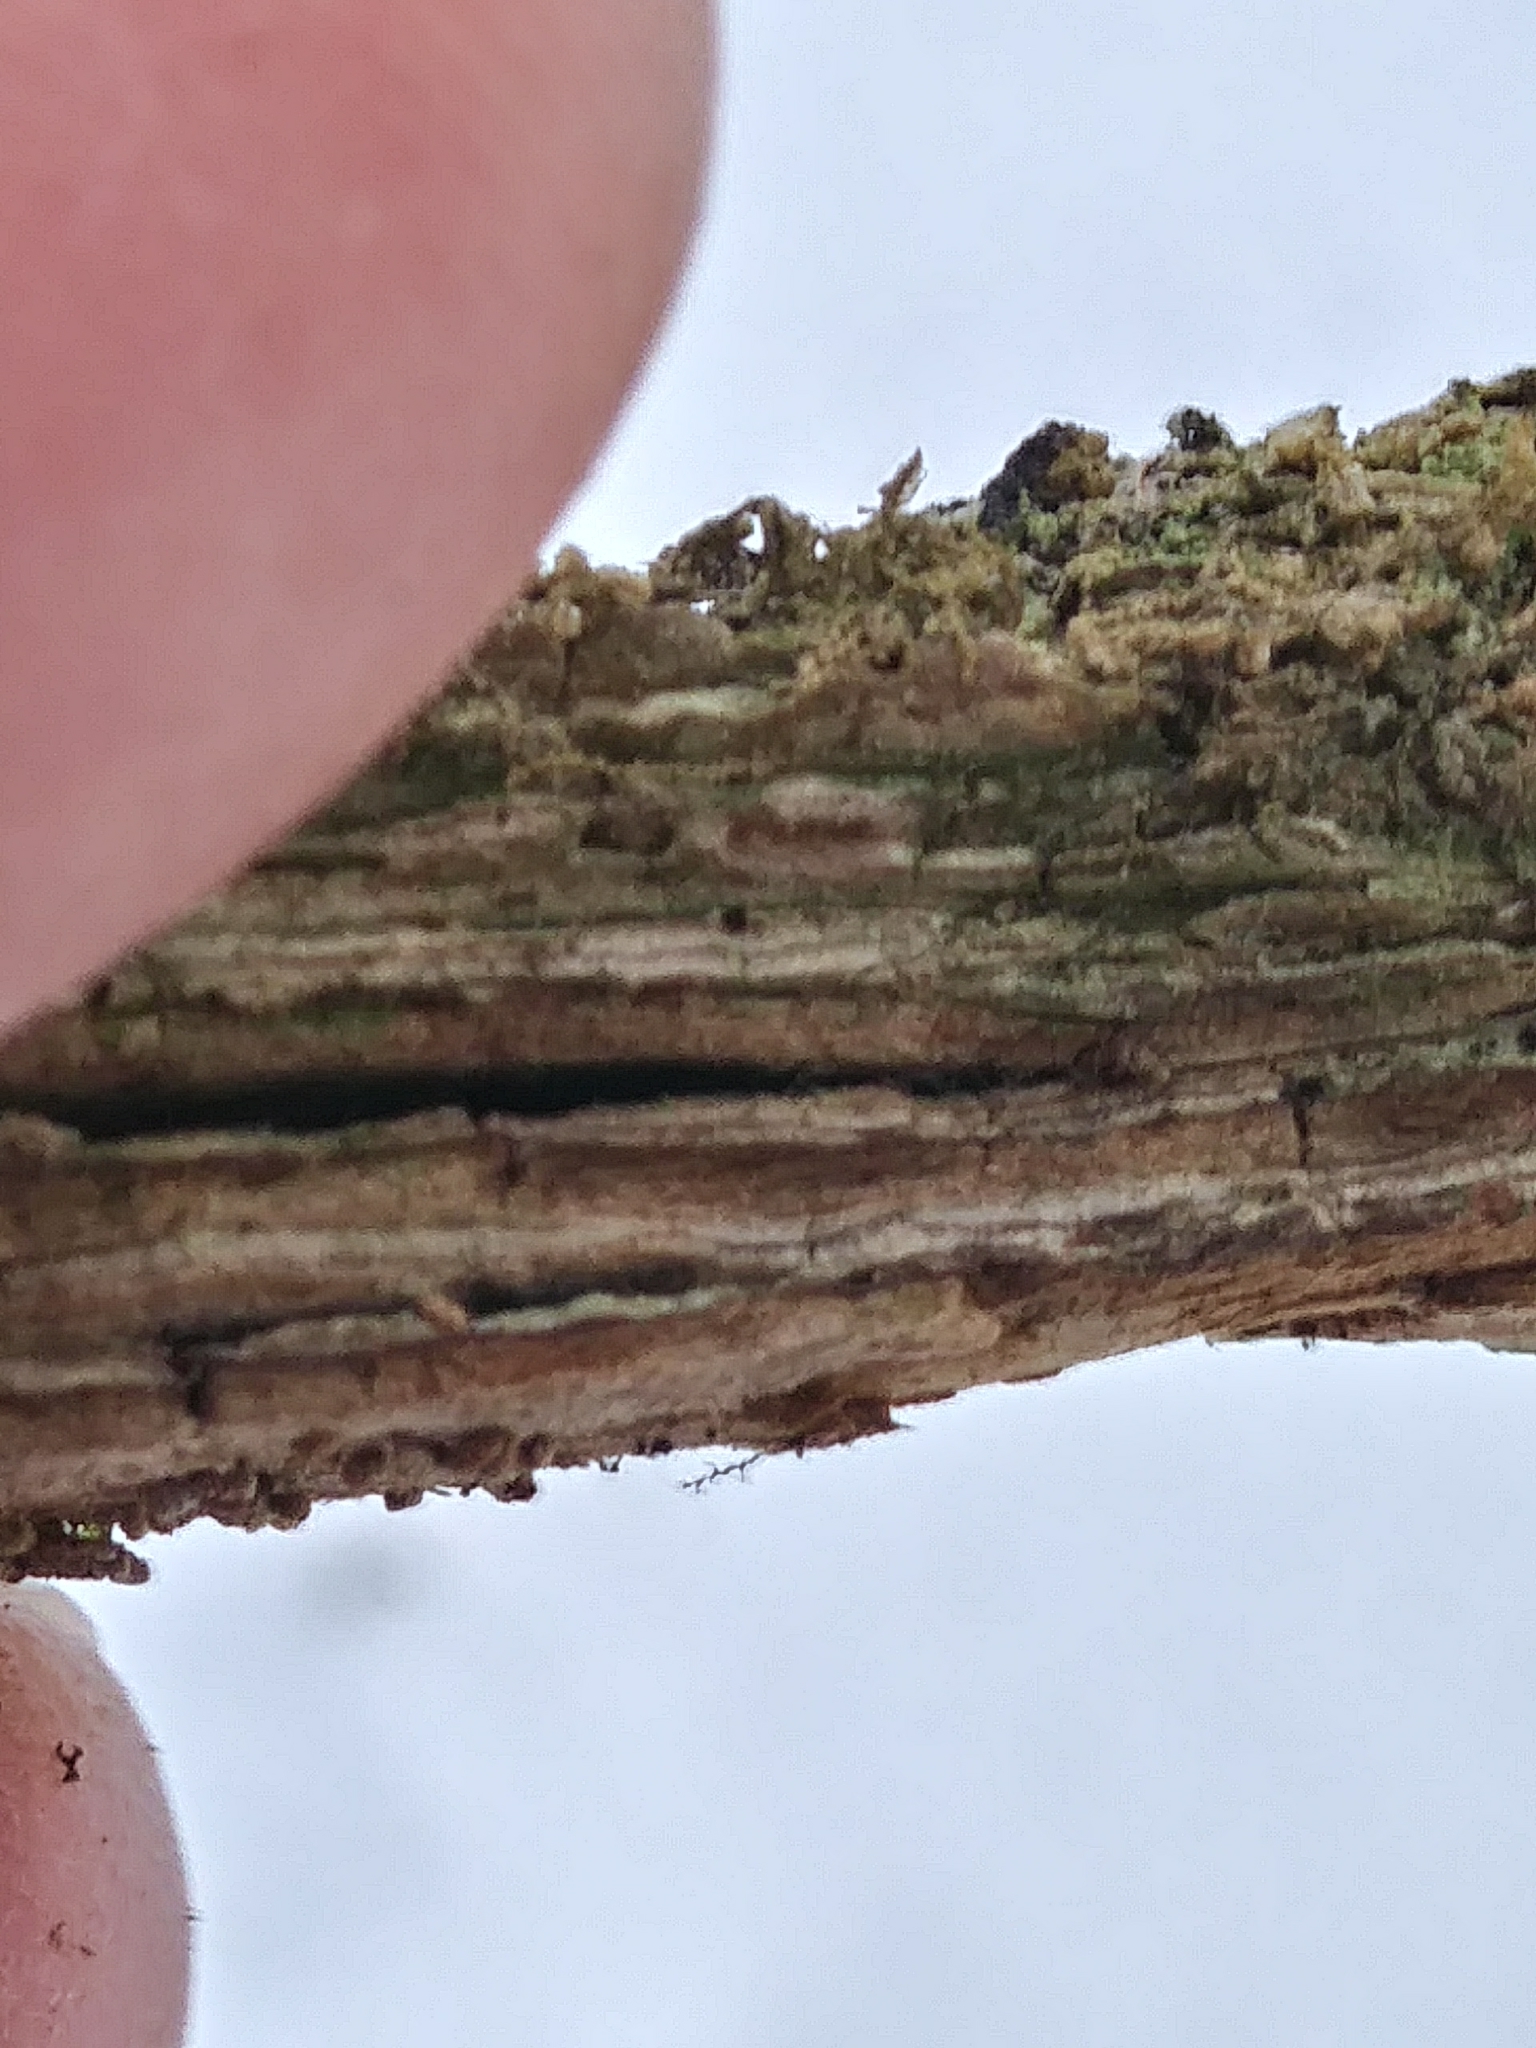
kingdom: Plantae
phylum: Tracheophyta
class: Magnoliopsida
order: Rosales
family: Ulmaceae
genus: Ulmus
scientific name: Ulmus americana
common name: American elm
